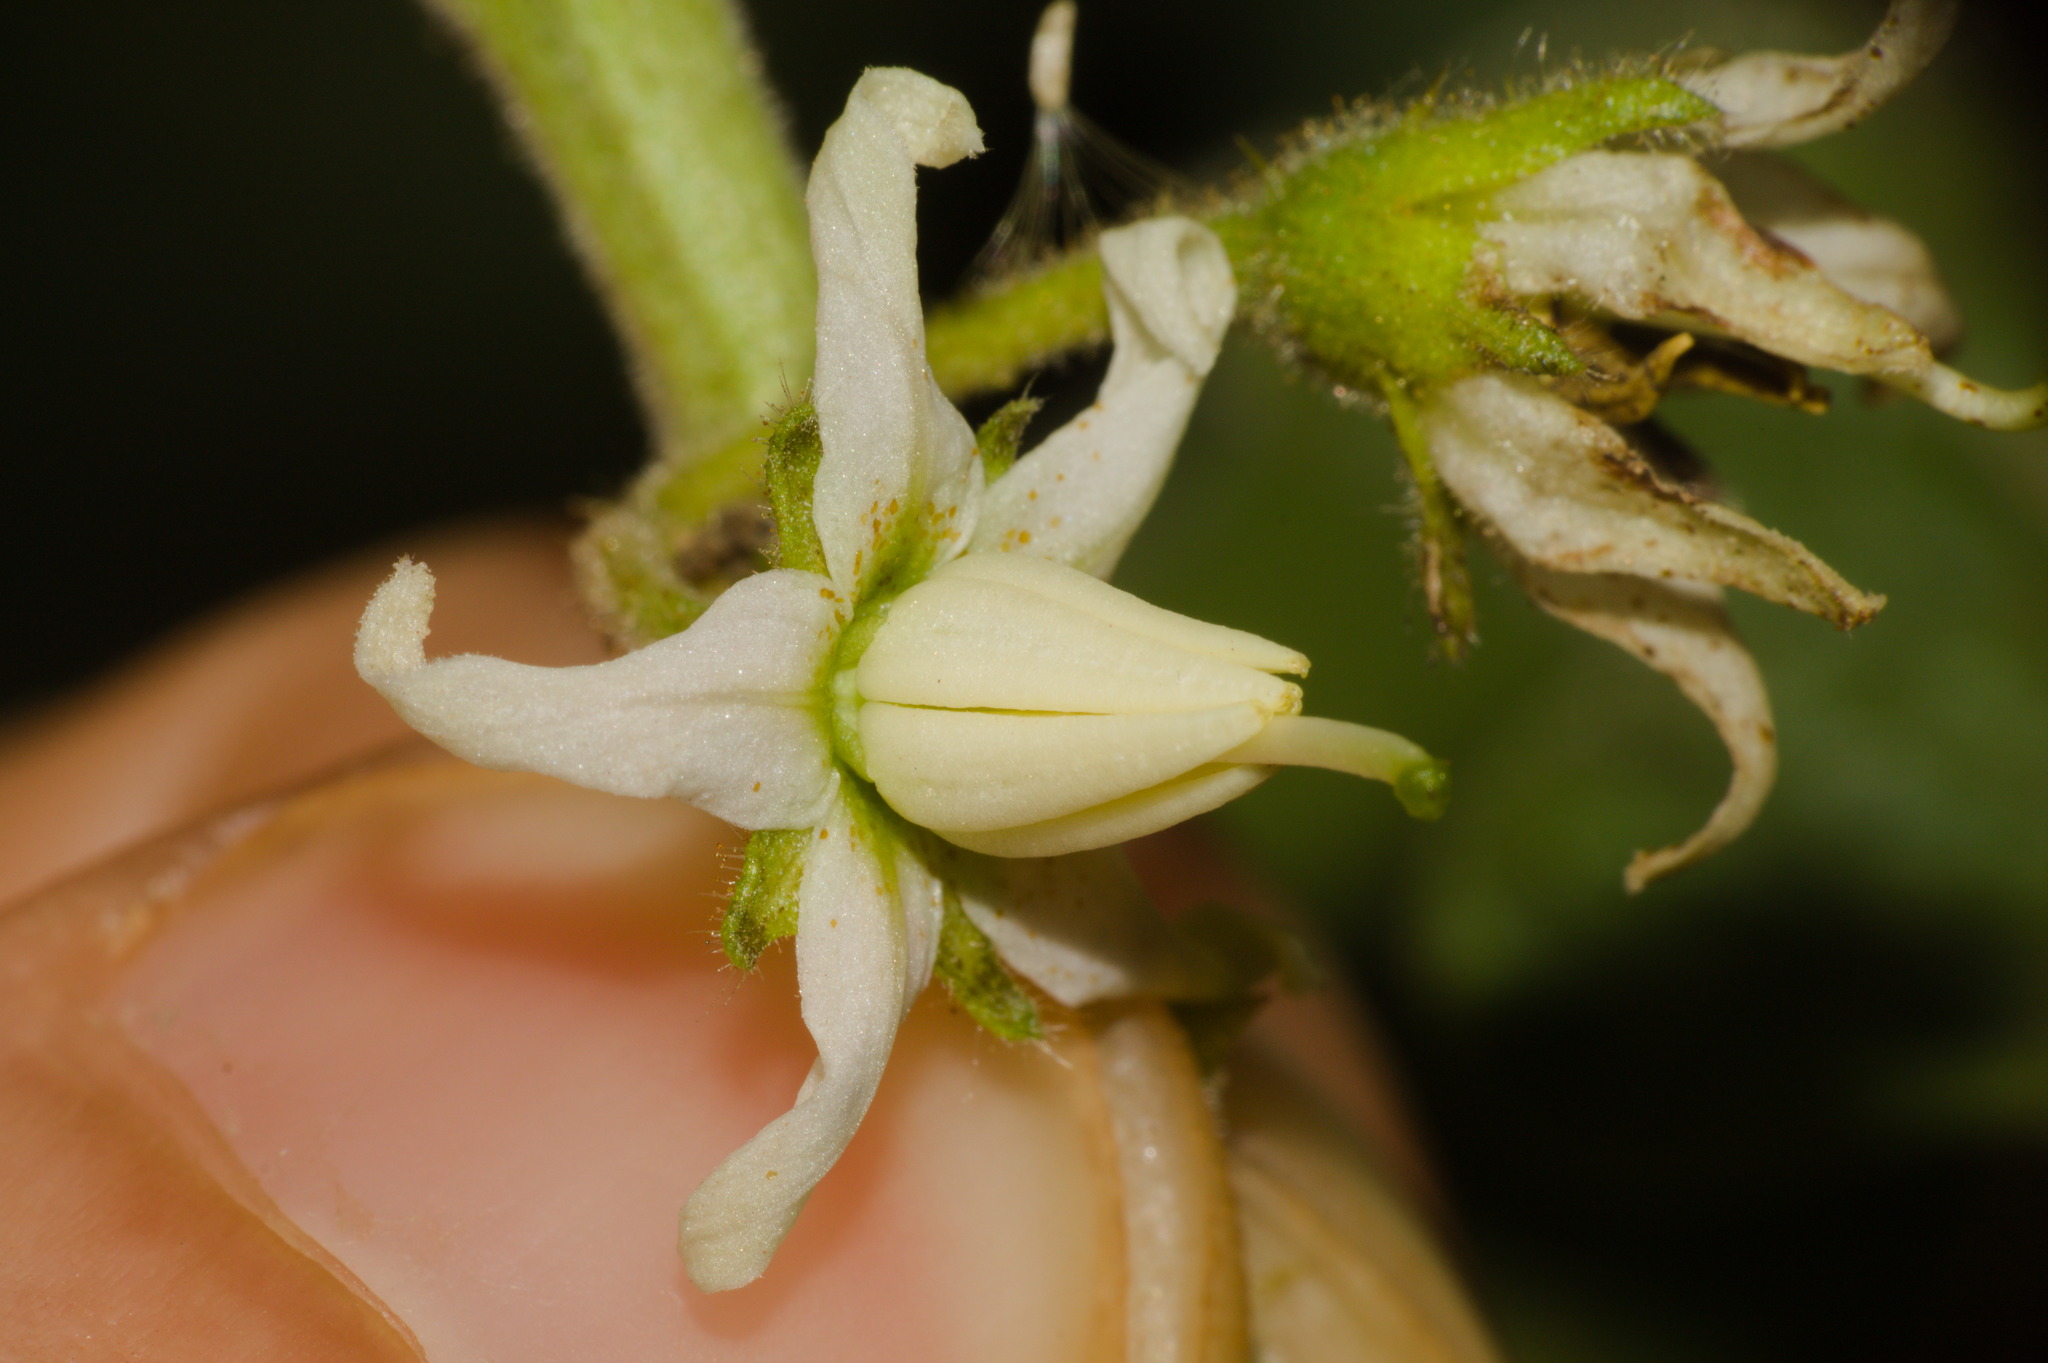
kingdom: Plantae
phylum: Tracheophyta
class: Magnoliopsida
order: Solanales
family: Solanaceae
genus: Solanum
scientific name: Solanum viarum
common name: Tropical soda apple
